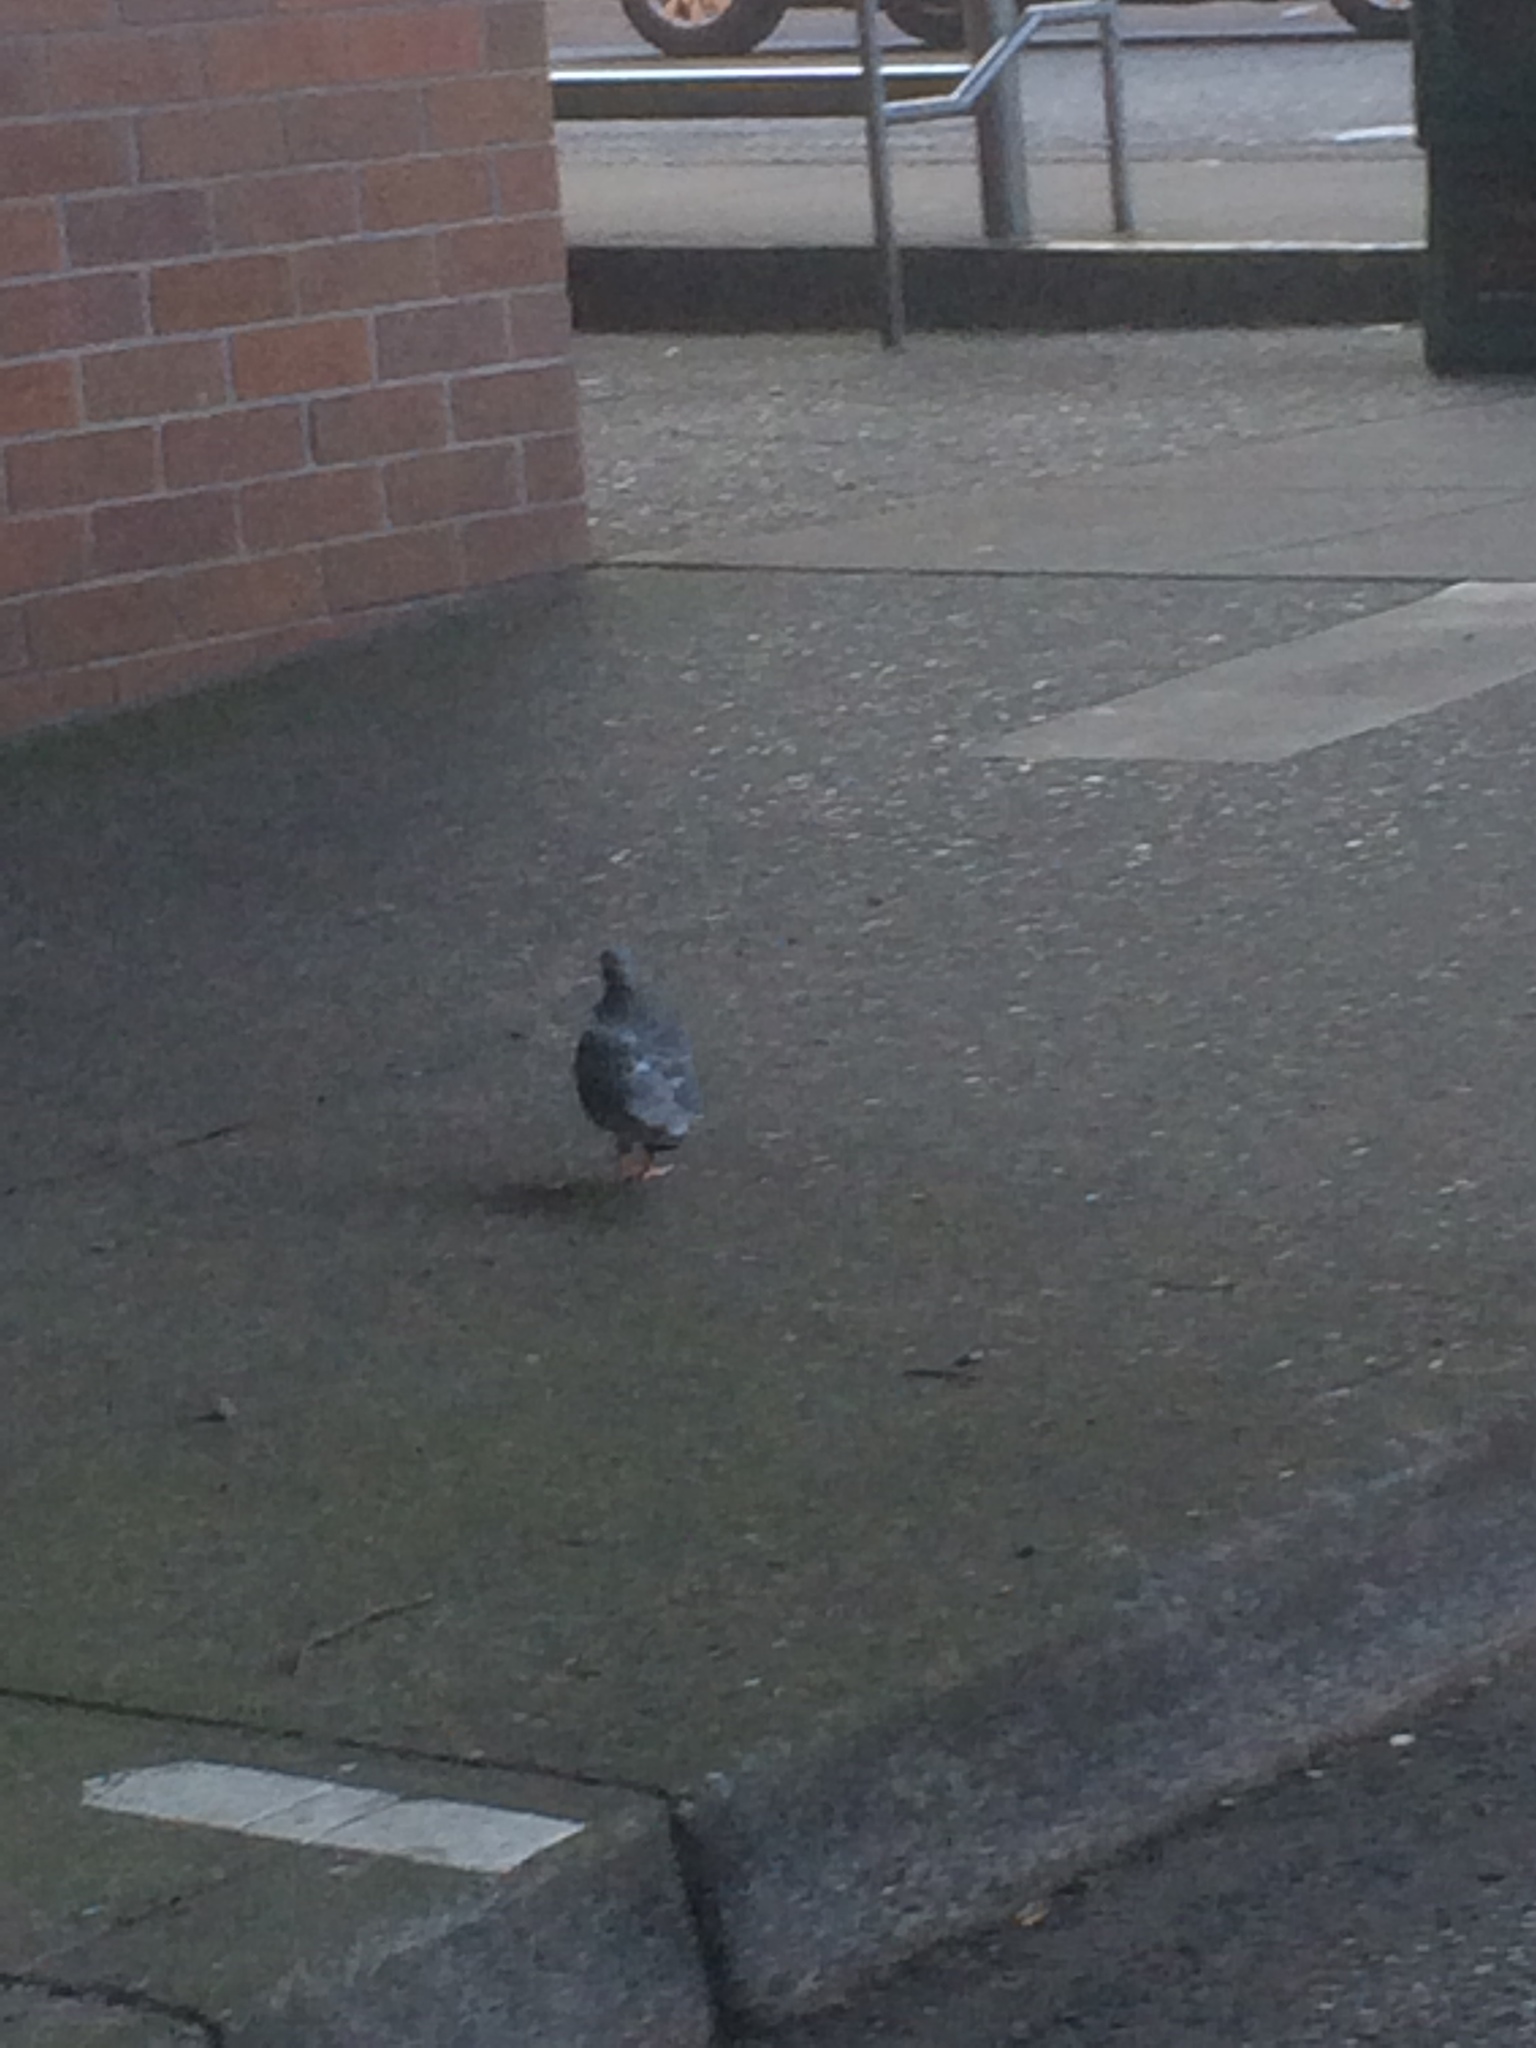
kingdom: Animalia
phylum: Chordata
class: Aves
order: Columbiformes
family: Columbidae
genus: Columba
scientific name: Columba livia
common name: Rock pigeon
